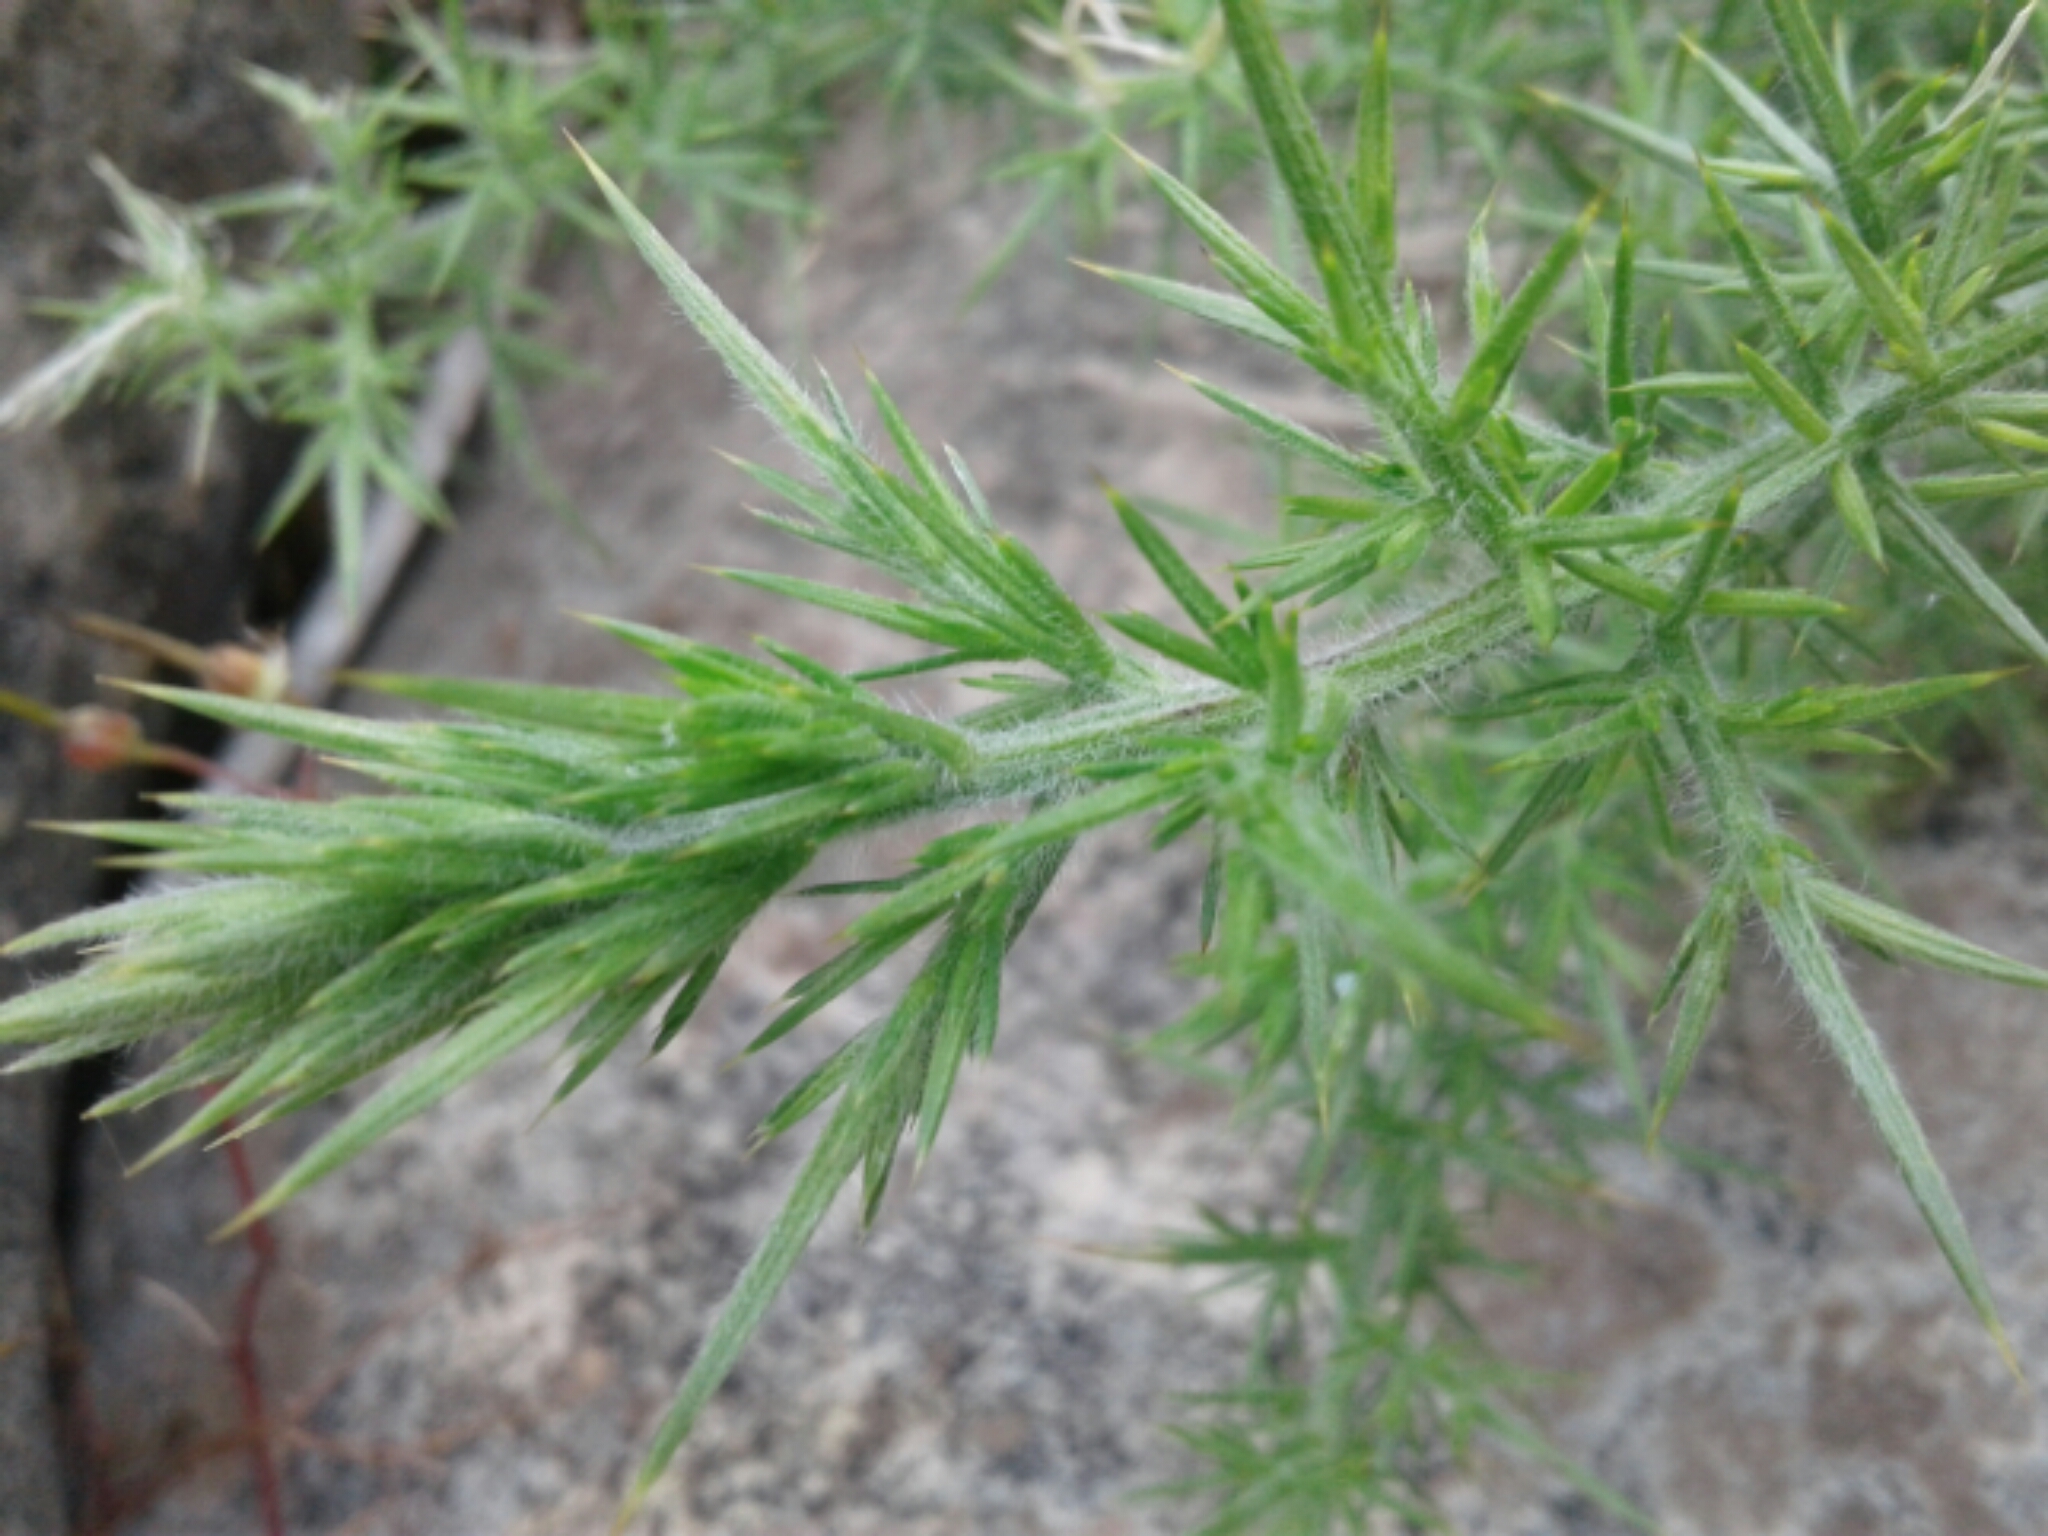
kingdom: Plantae
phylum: Tracheophyta
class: Magnoliopsida
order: Fabales
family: Fabaceae
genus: Ulex
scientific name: Ulex europaeus
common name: Common gorse
